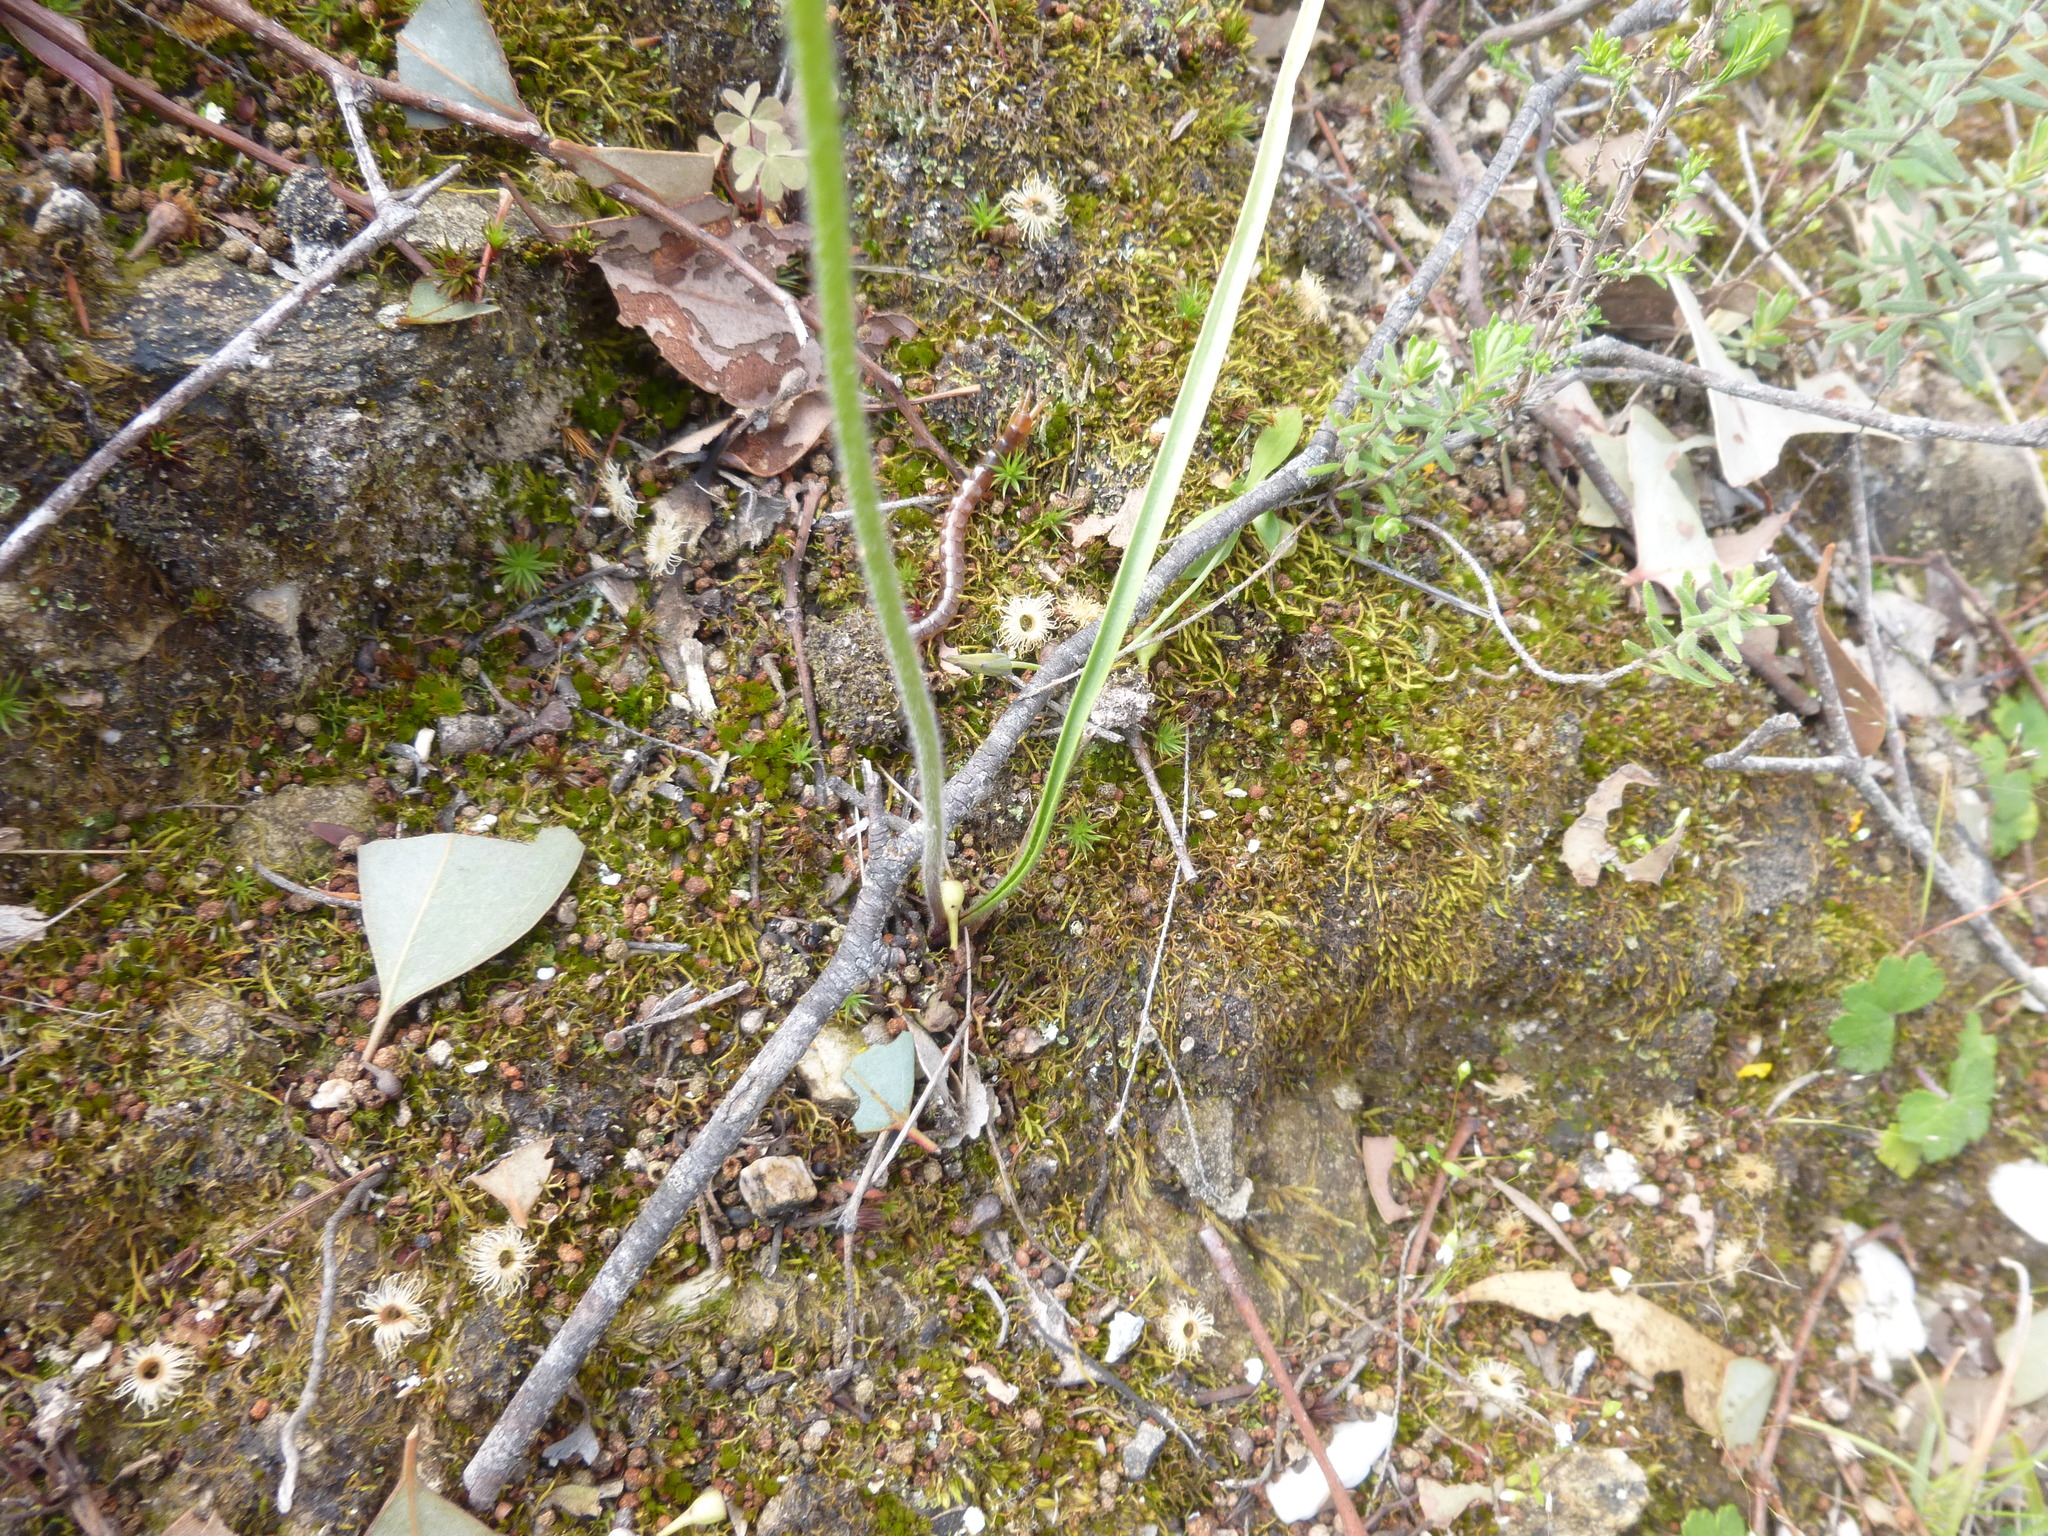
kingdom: Plantae
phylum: Tracheophyta
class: Liliopsida
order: Asparagales
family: Orchidaceae
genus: Caladenia
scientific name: Caladenia moschata
